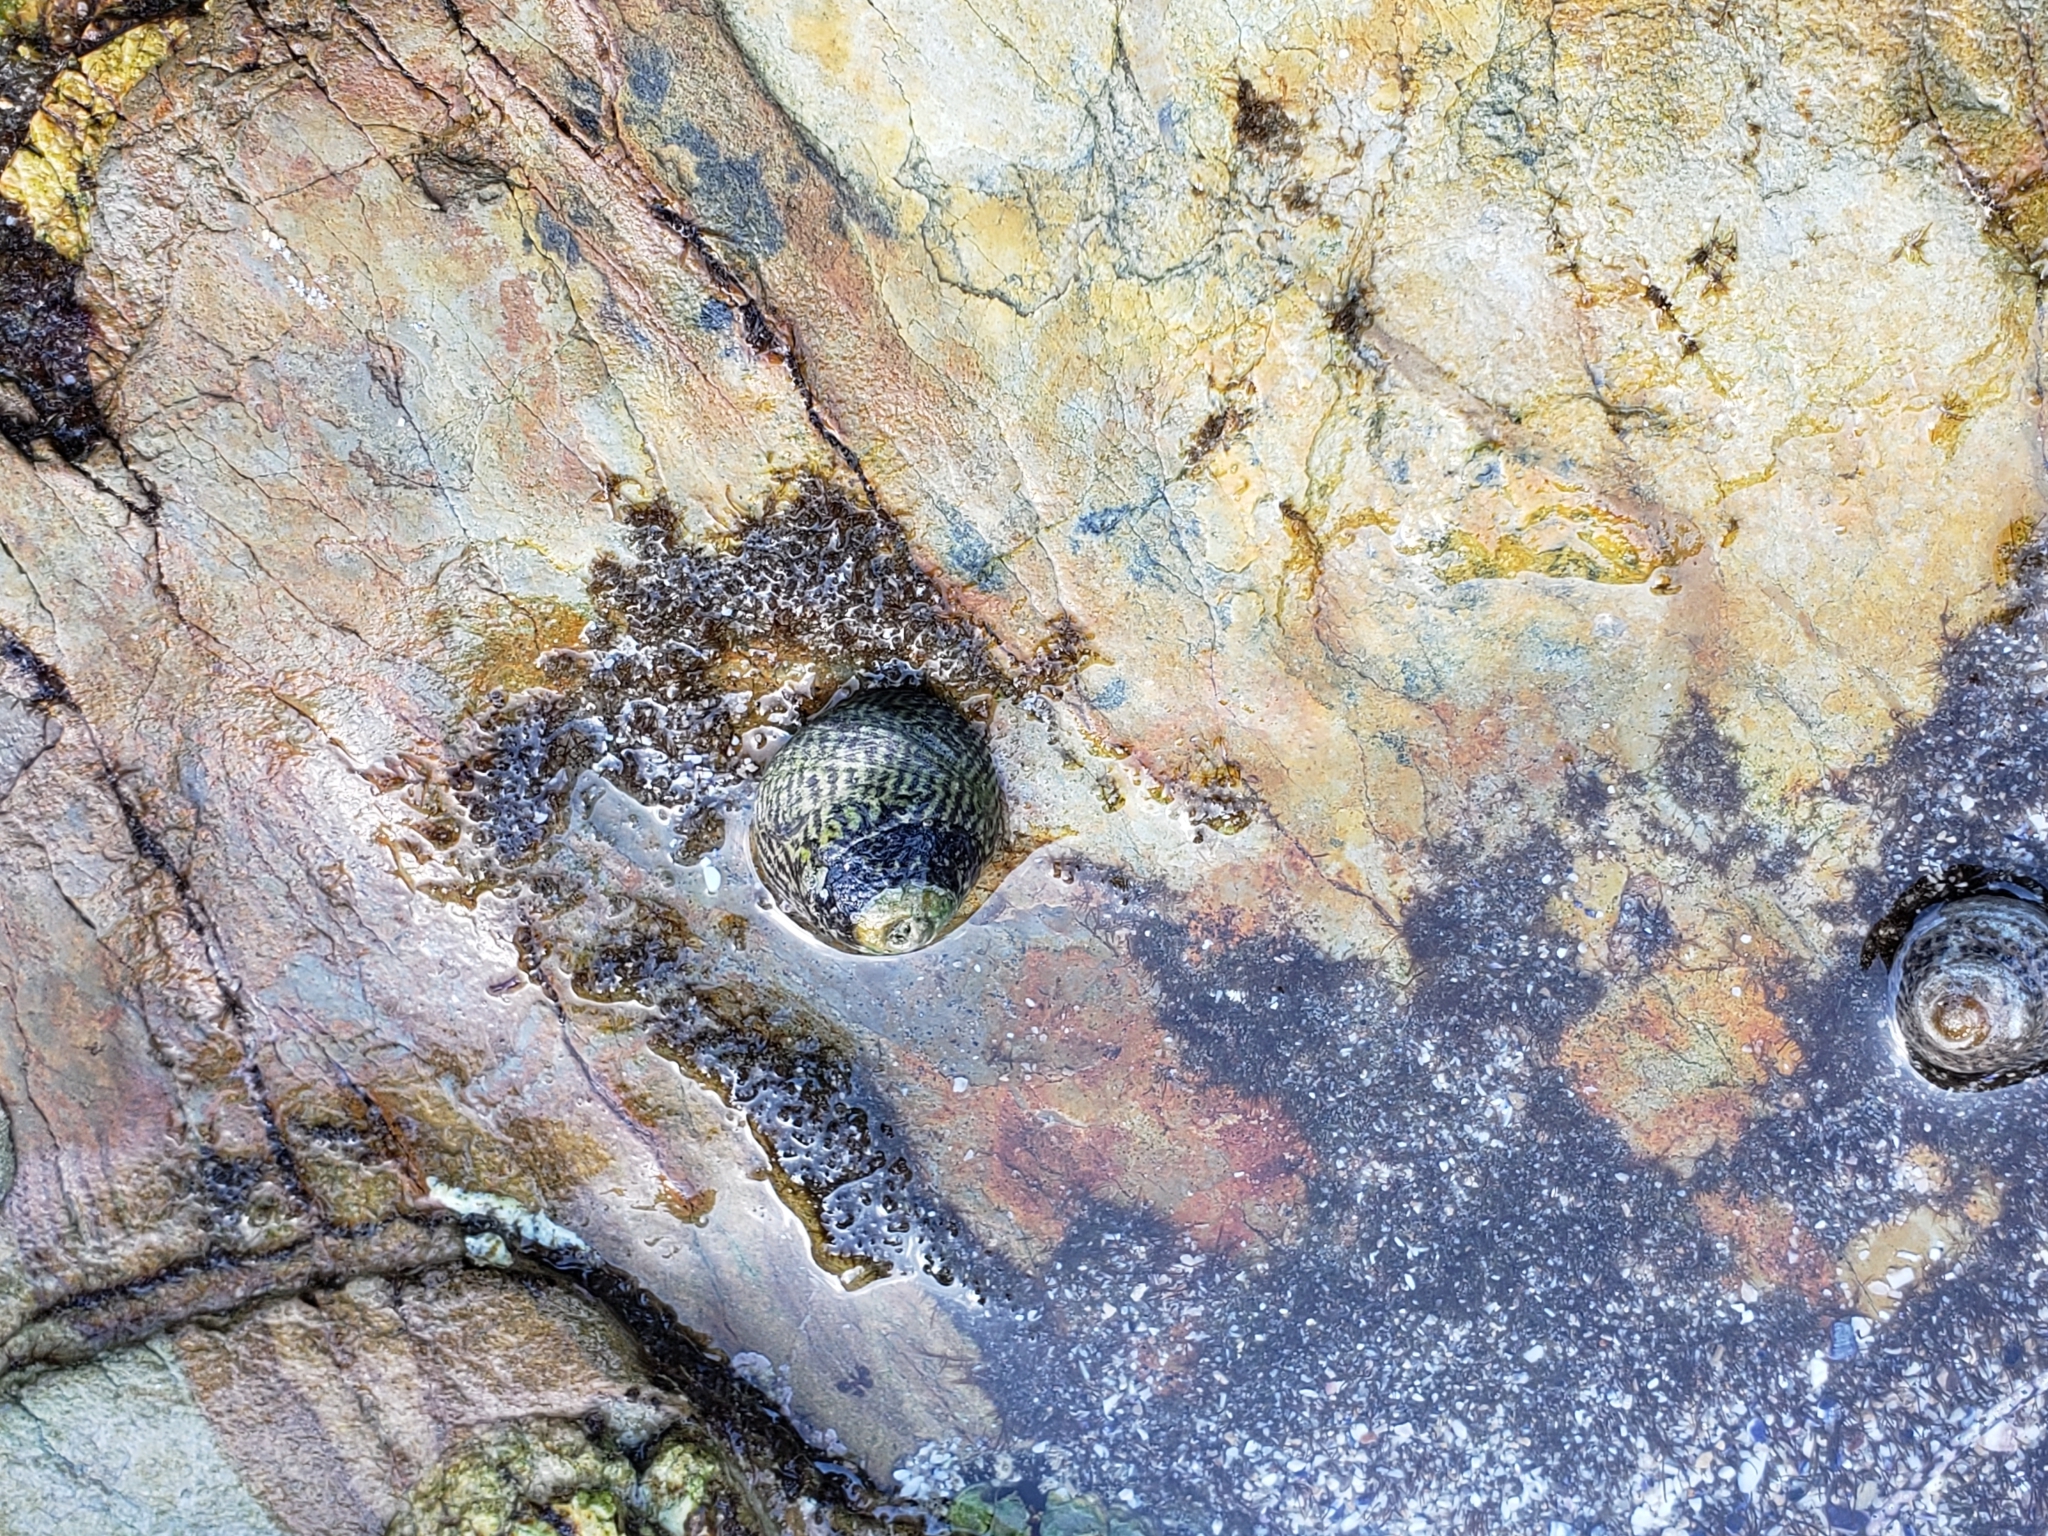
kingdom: Animalia
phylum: Mollusca
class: Gastropoda
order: Trochida
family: Tegulidae
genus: Tegula
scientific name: Tegula gallina
